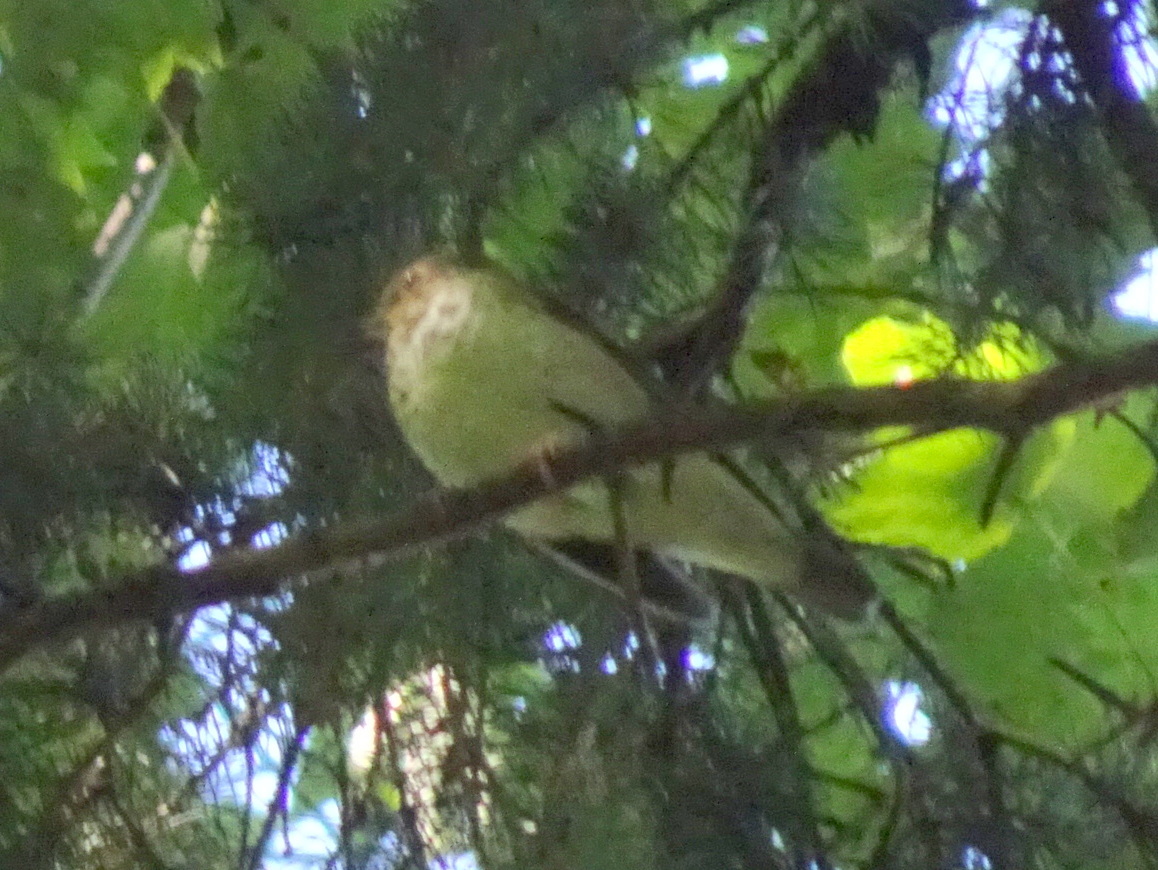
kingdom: Animalia
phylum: Chordata
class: Aves
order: Passeriformes
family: Turdidae
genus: Catharus
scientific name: Catharus ustulatus
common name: Swainson's thrush
